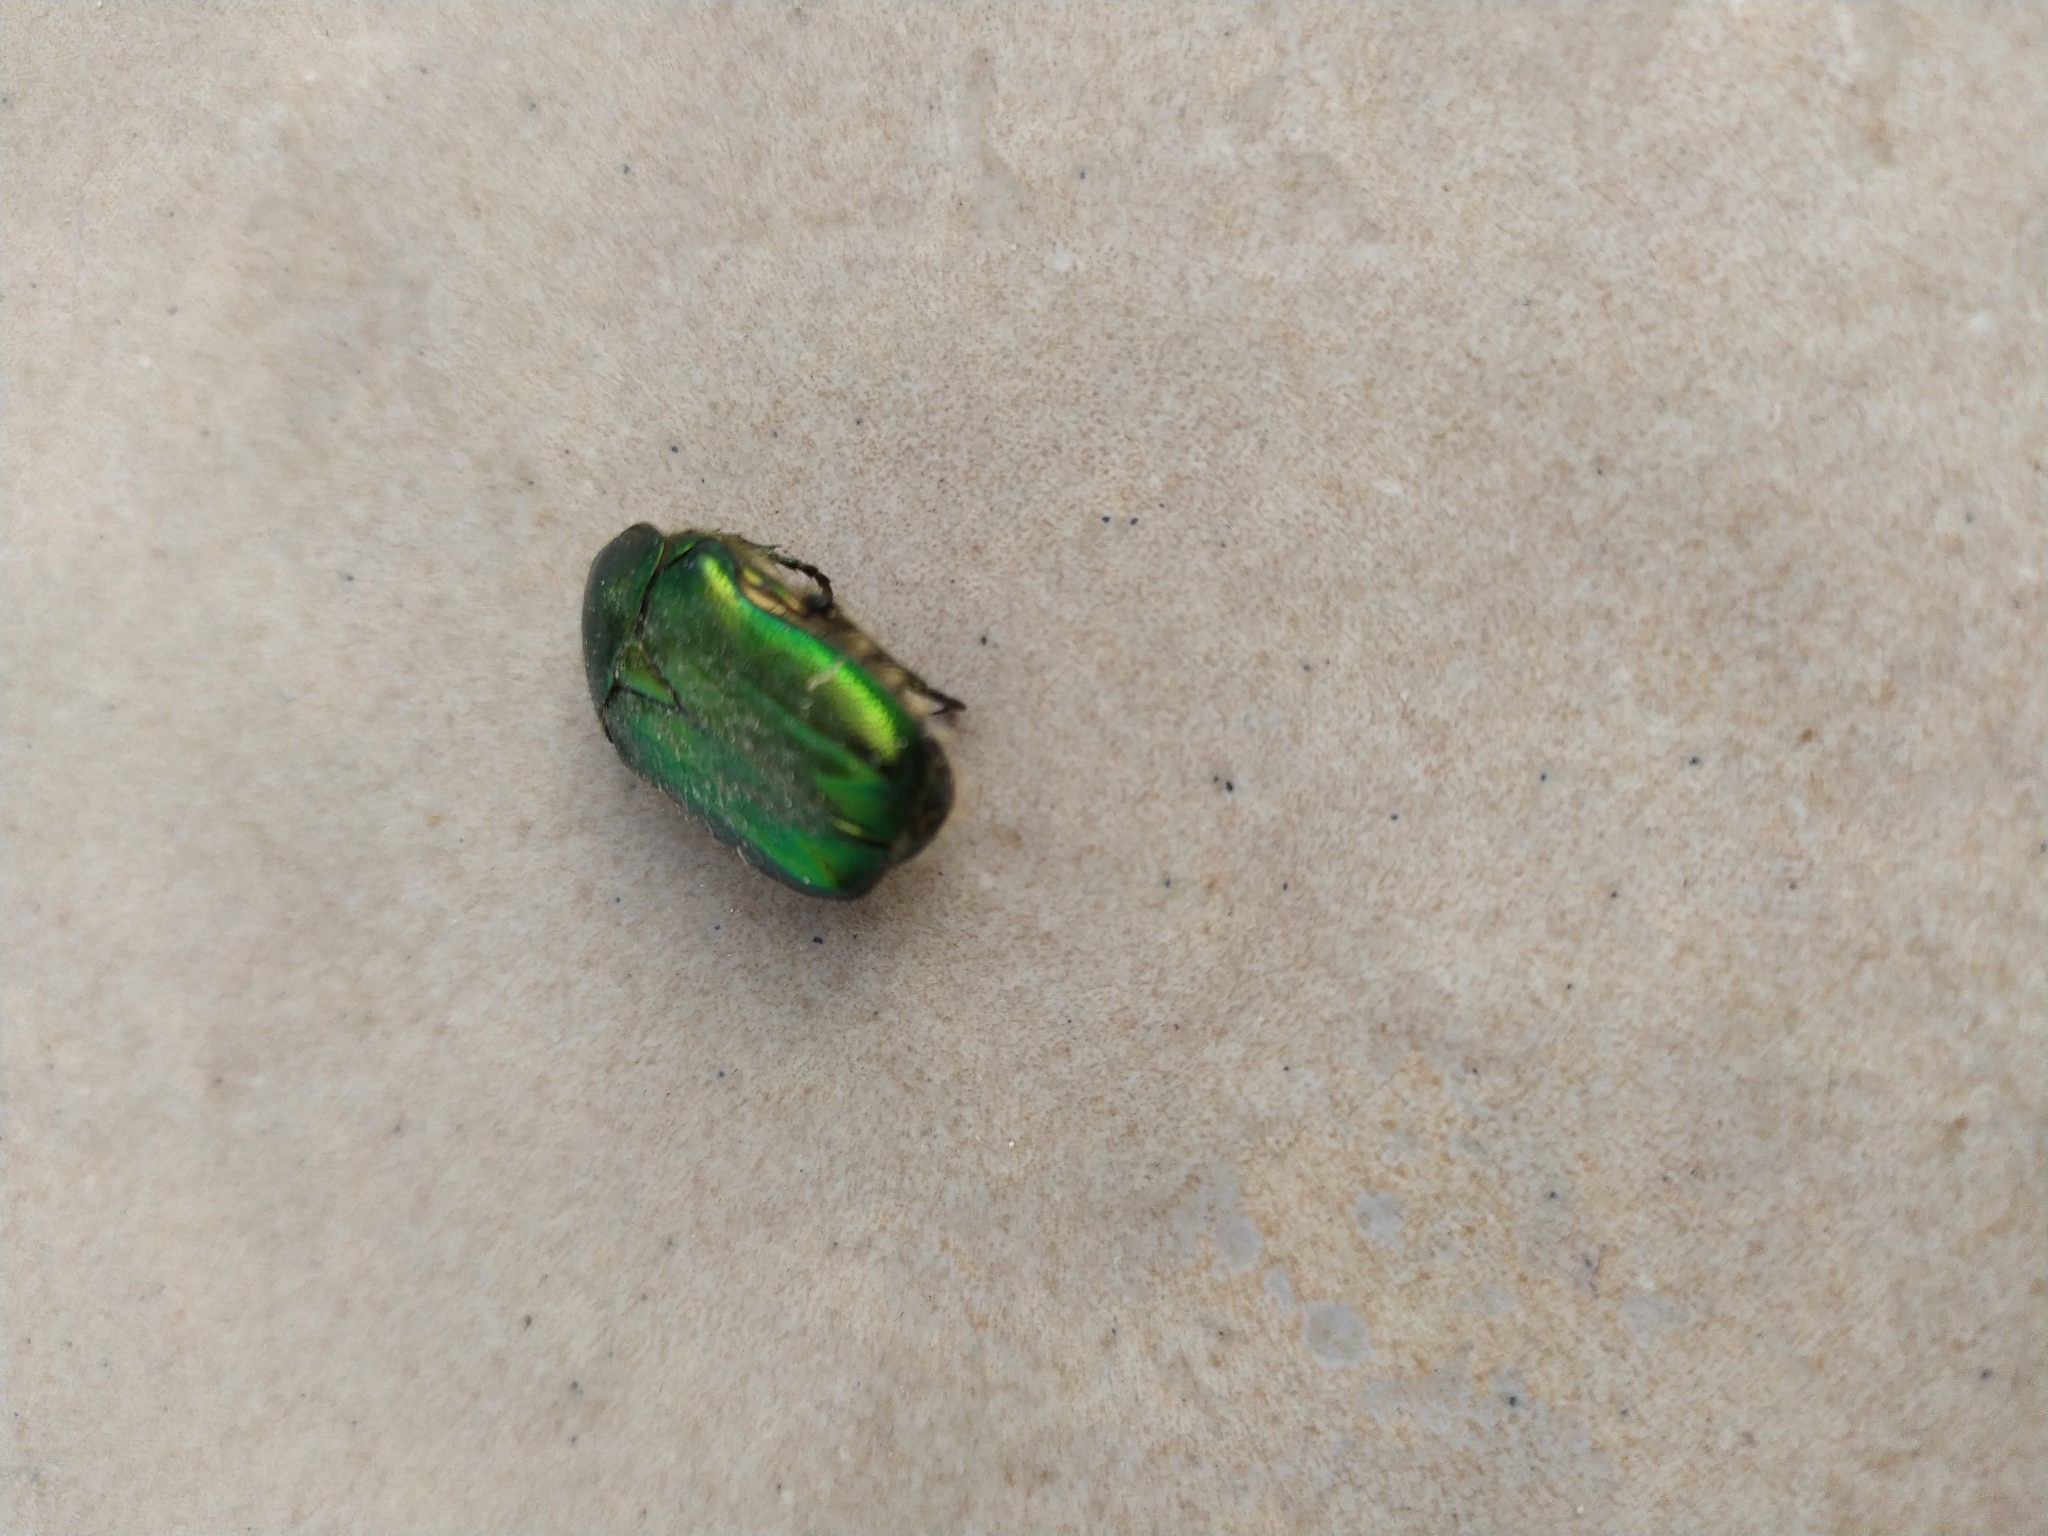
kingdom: Animalia
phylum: Arthropoda
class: Insecta
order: Coleoptera
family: Scarabaeidae
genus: Cetonia
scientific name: Cetonia aurata
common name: Rose chafer
